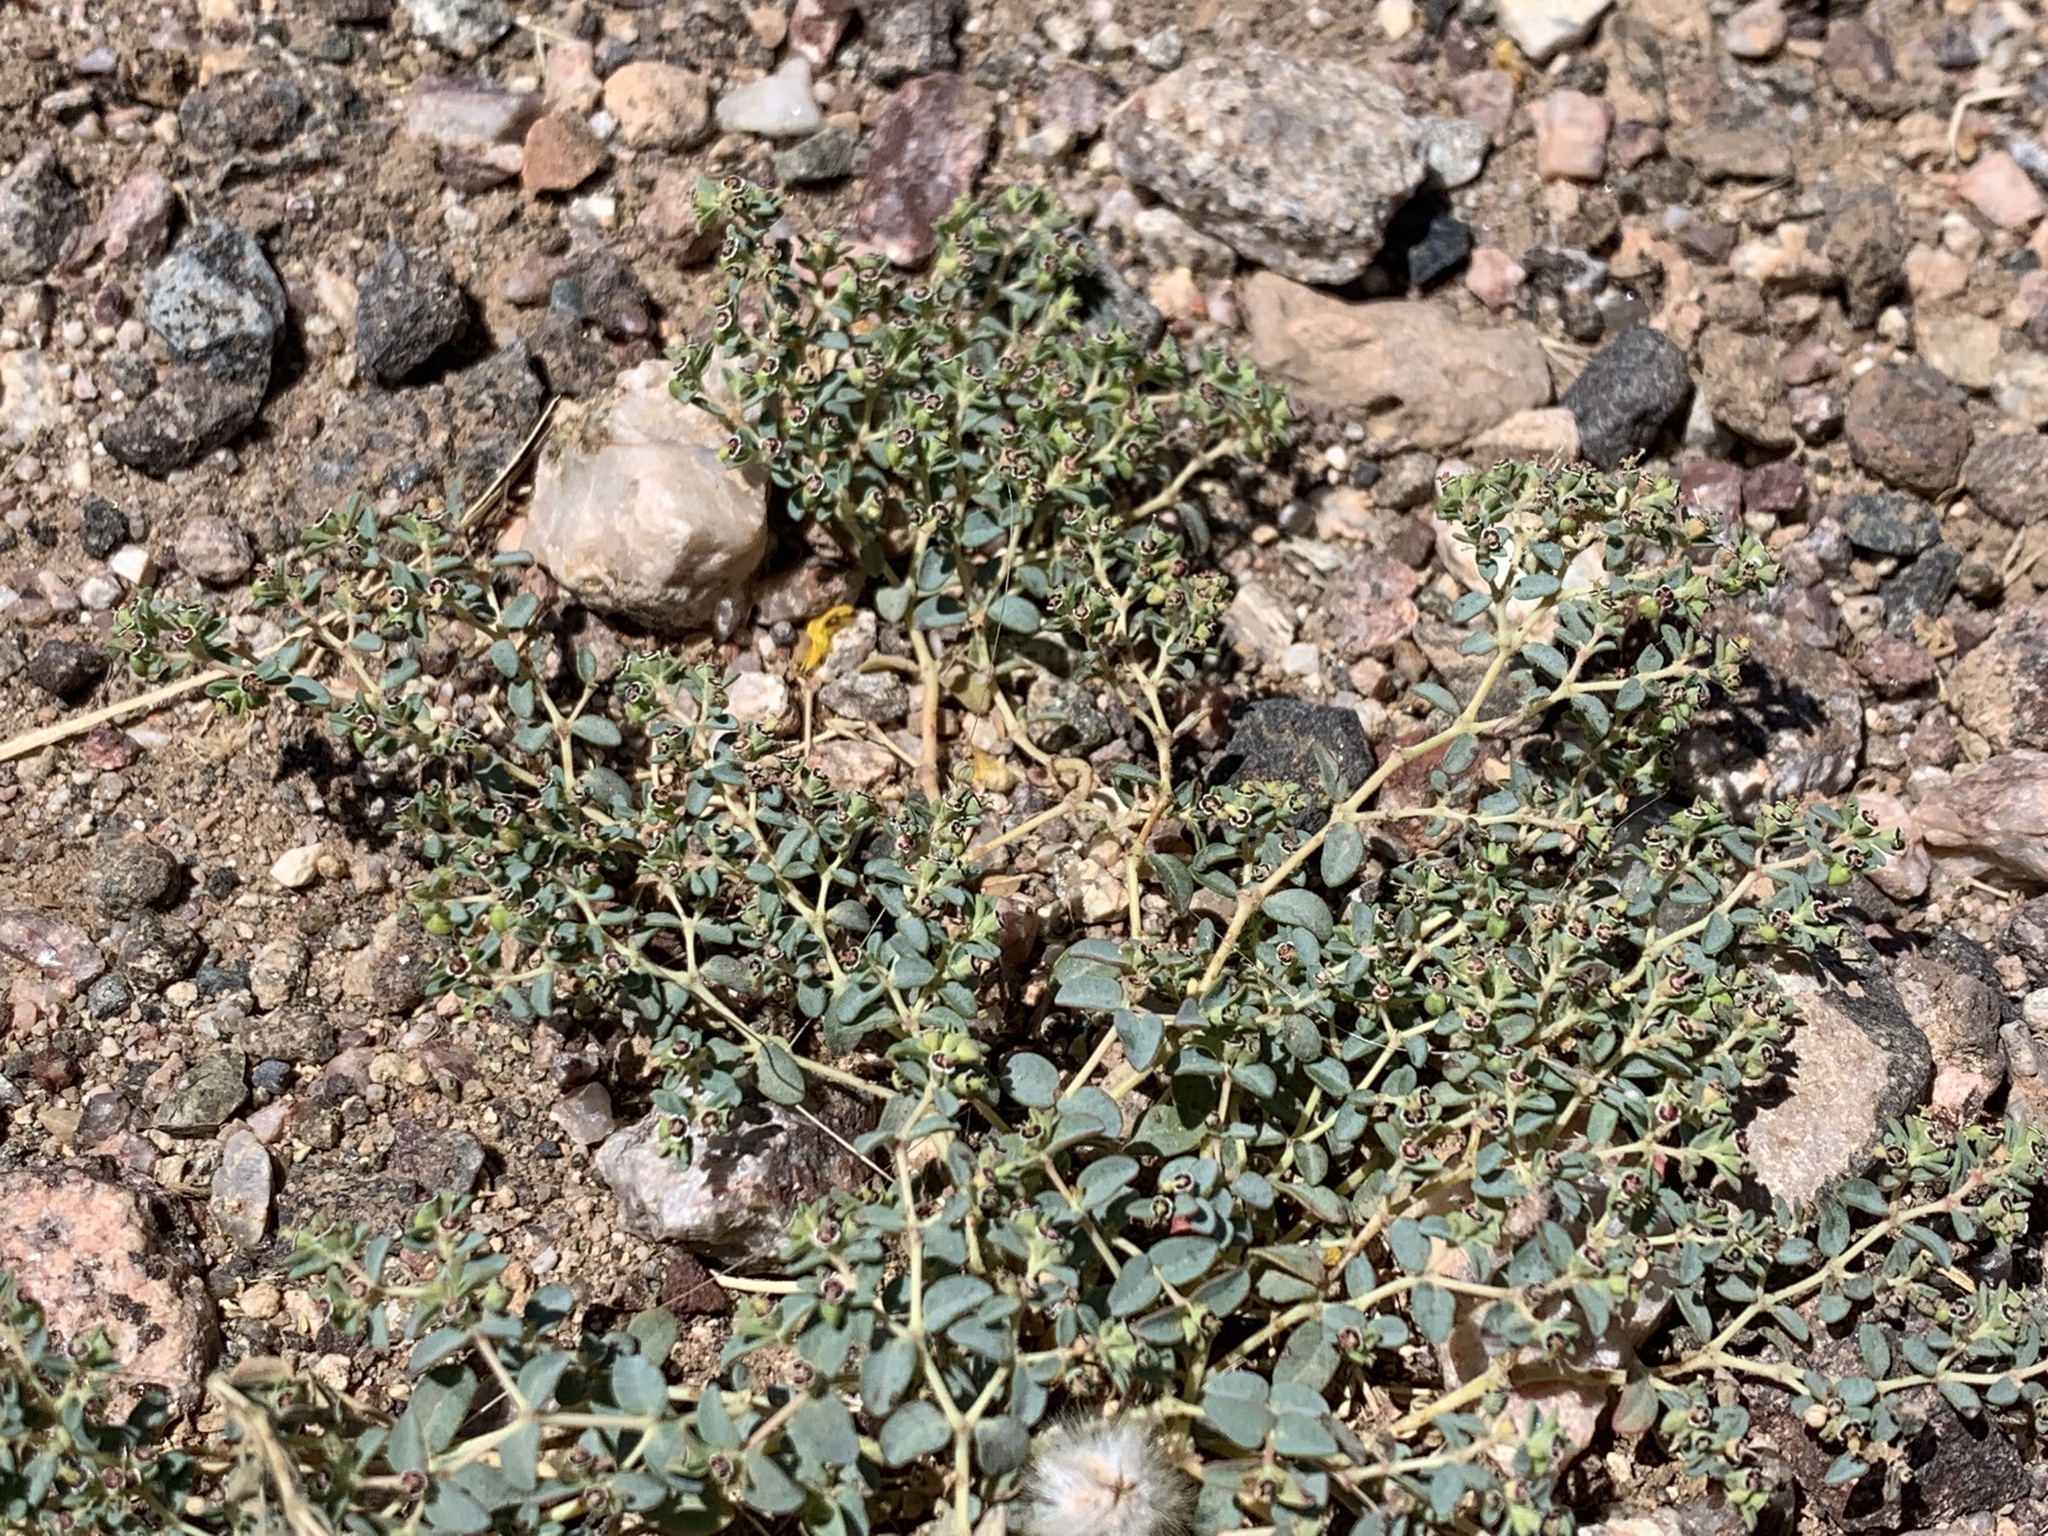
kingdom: Plantae
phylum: Tracheophyta
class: Magnoliopsida
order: Malpighiales
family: Euphorbiaceae
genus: Euphorbia
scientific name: Euphorbia polycarpa
